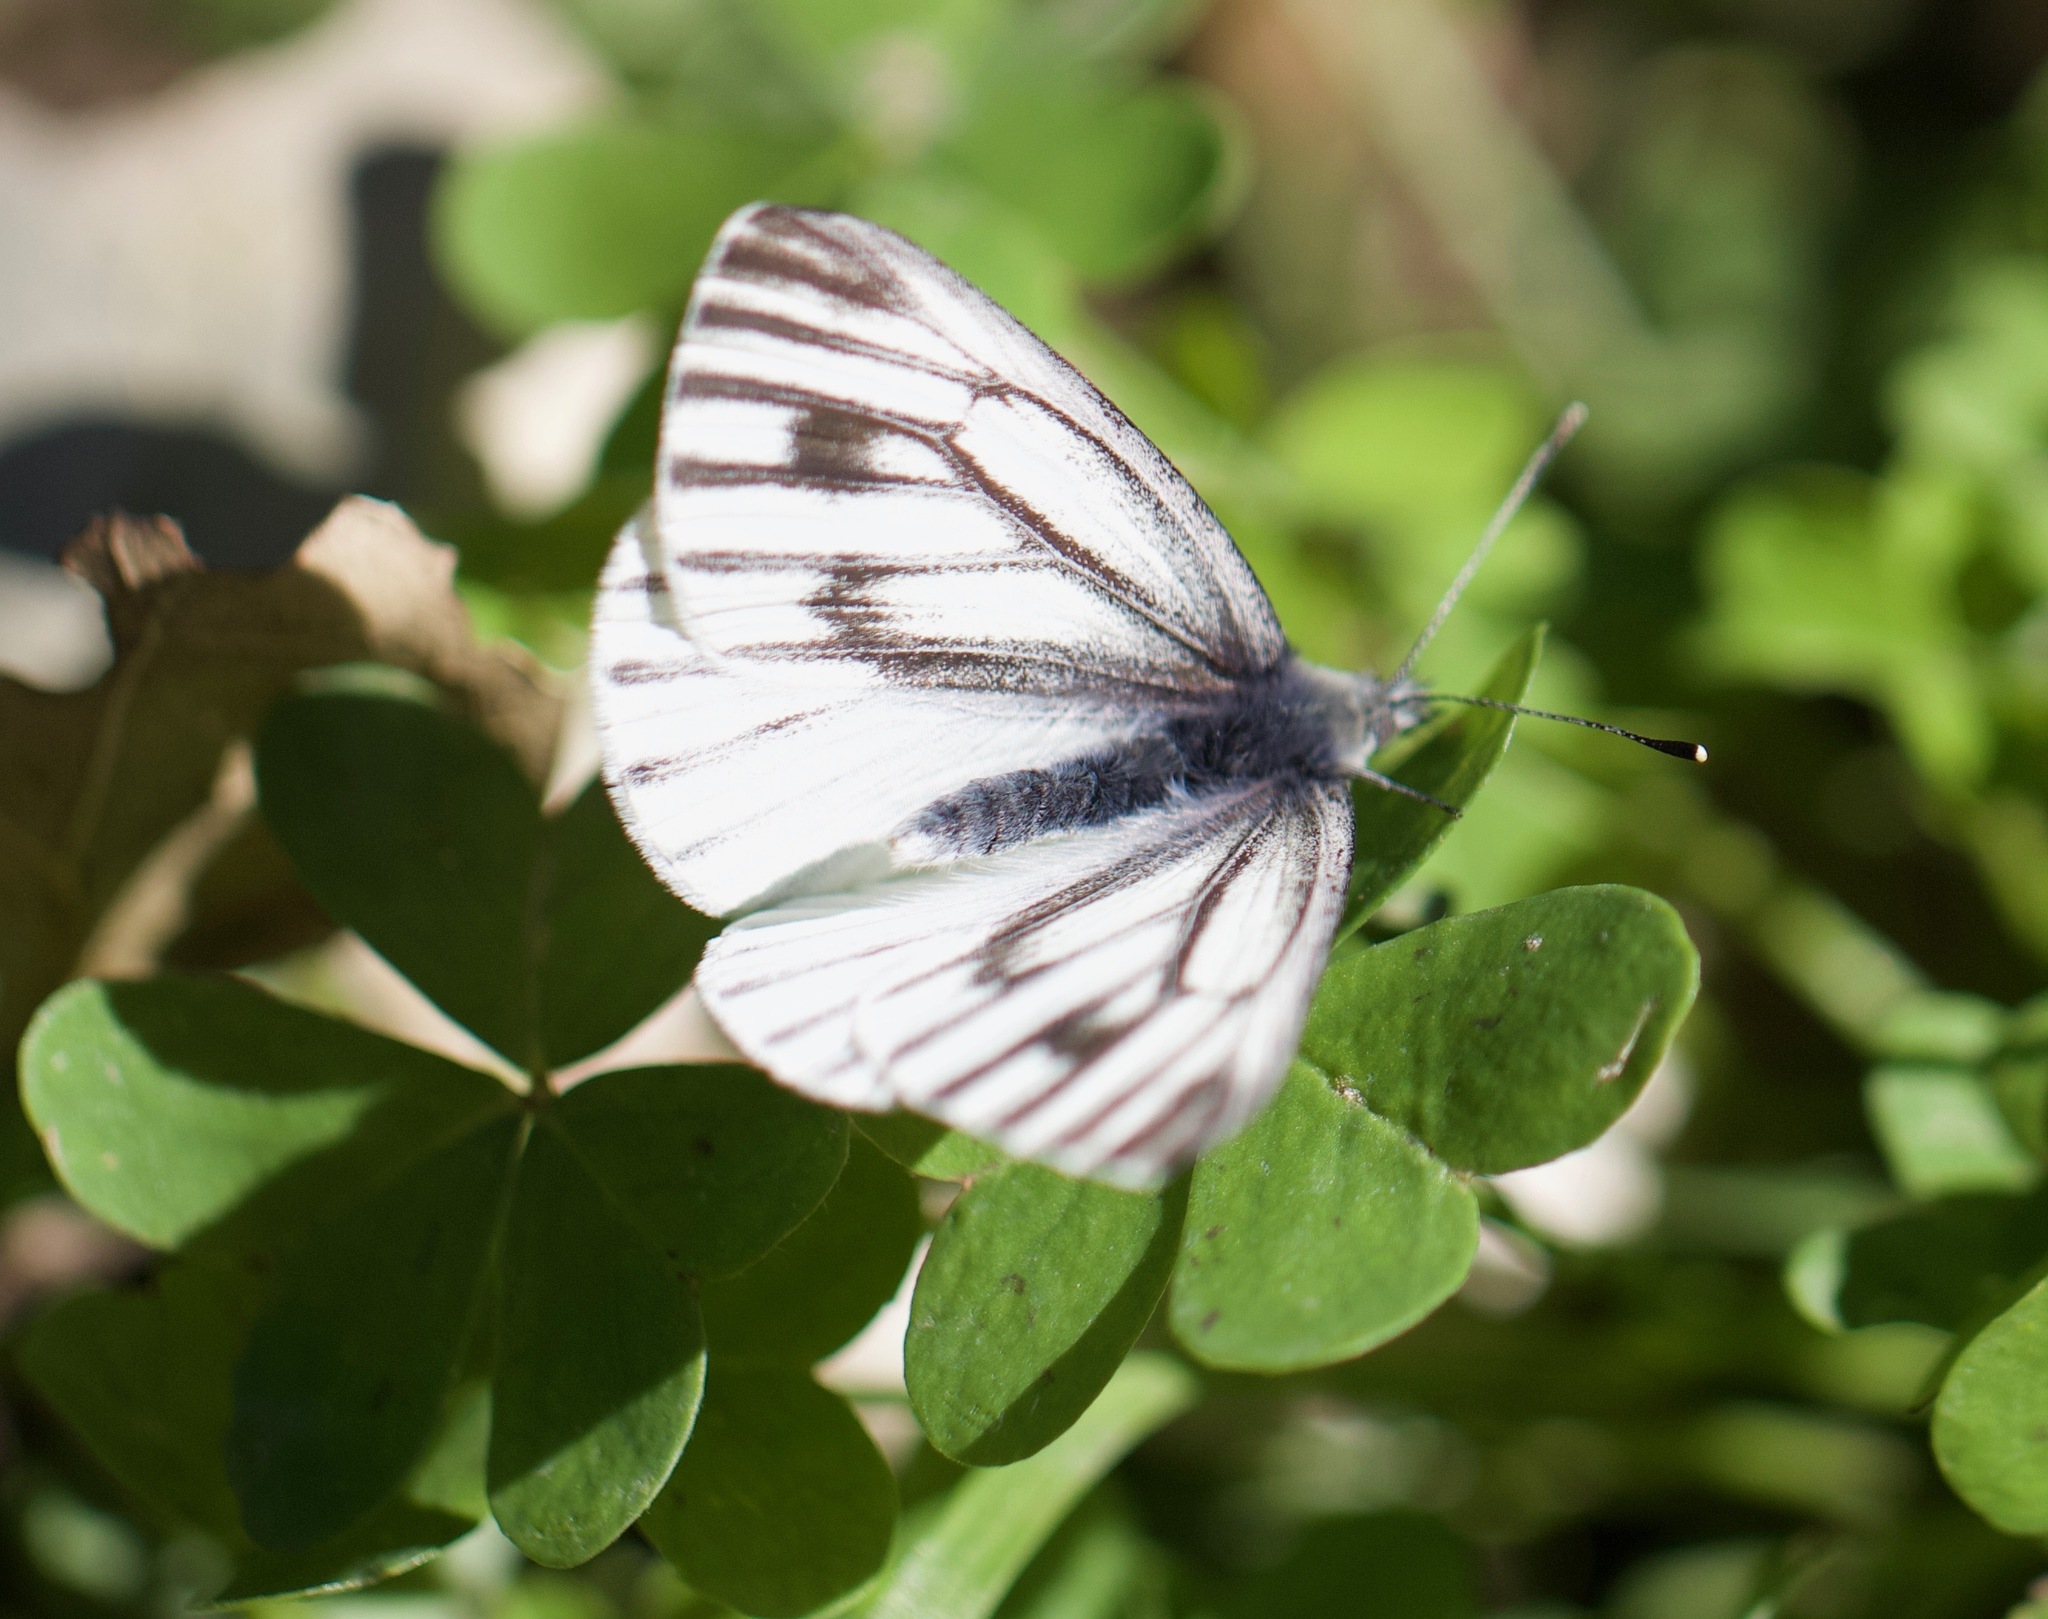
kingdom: Animalia
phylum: Arthropoda
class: Insecta
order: Lepidoptera
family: Pieridae
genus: Pieris
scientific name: Pieris marginalis
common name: Margined white
